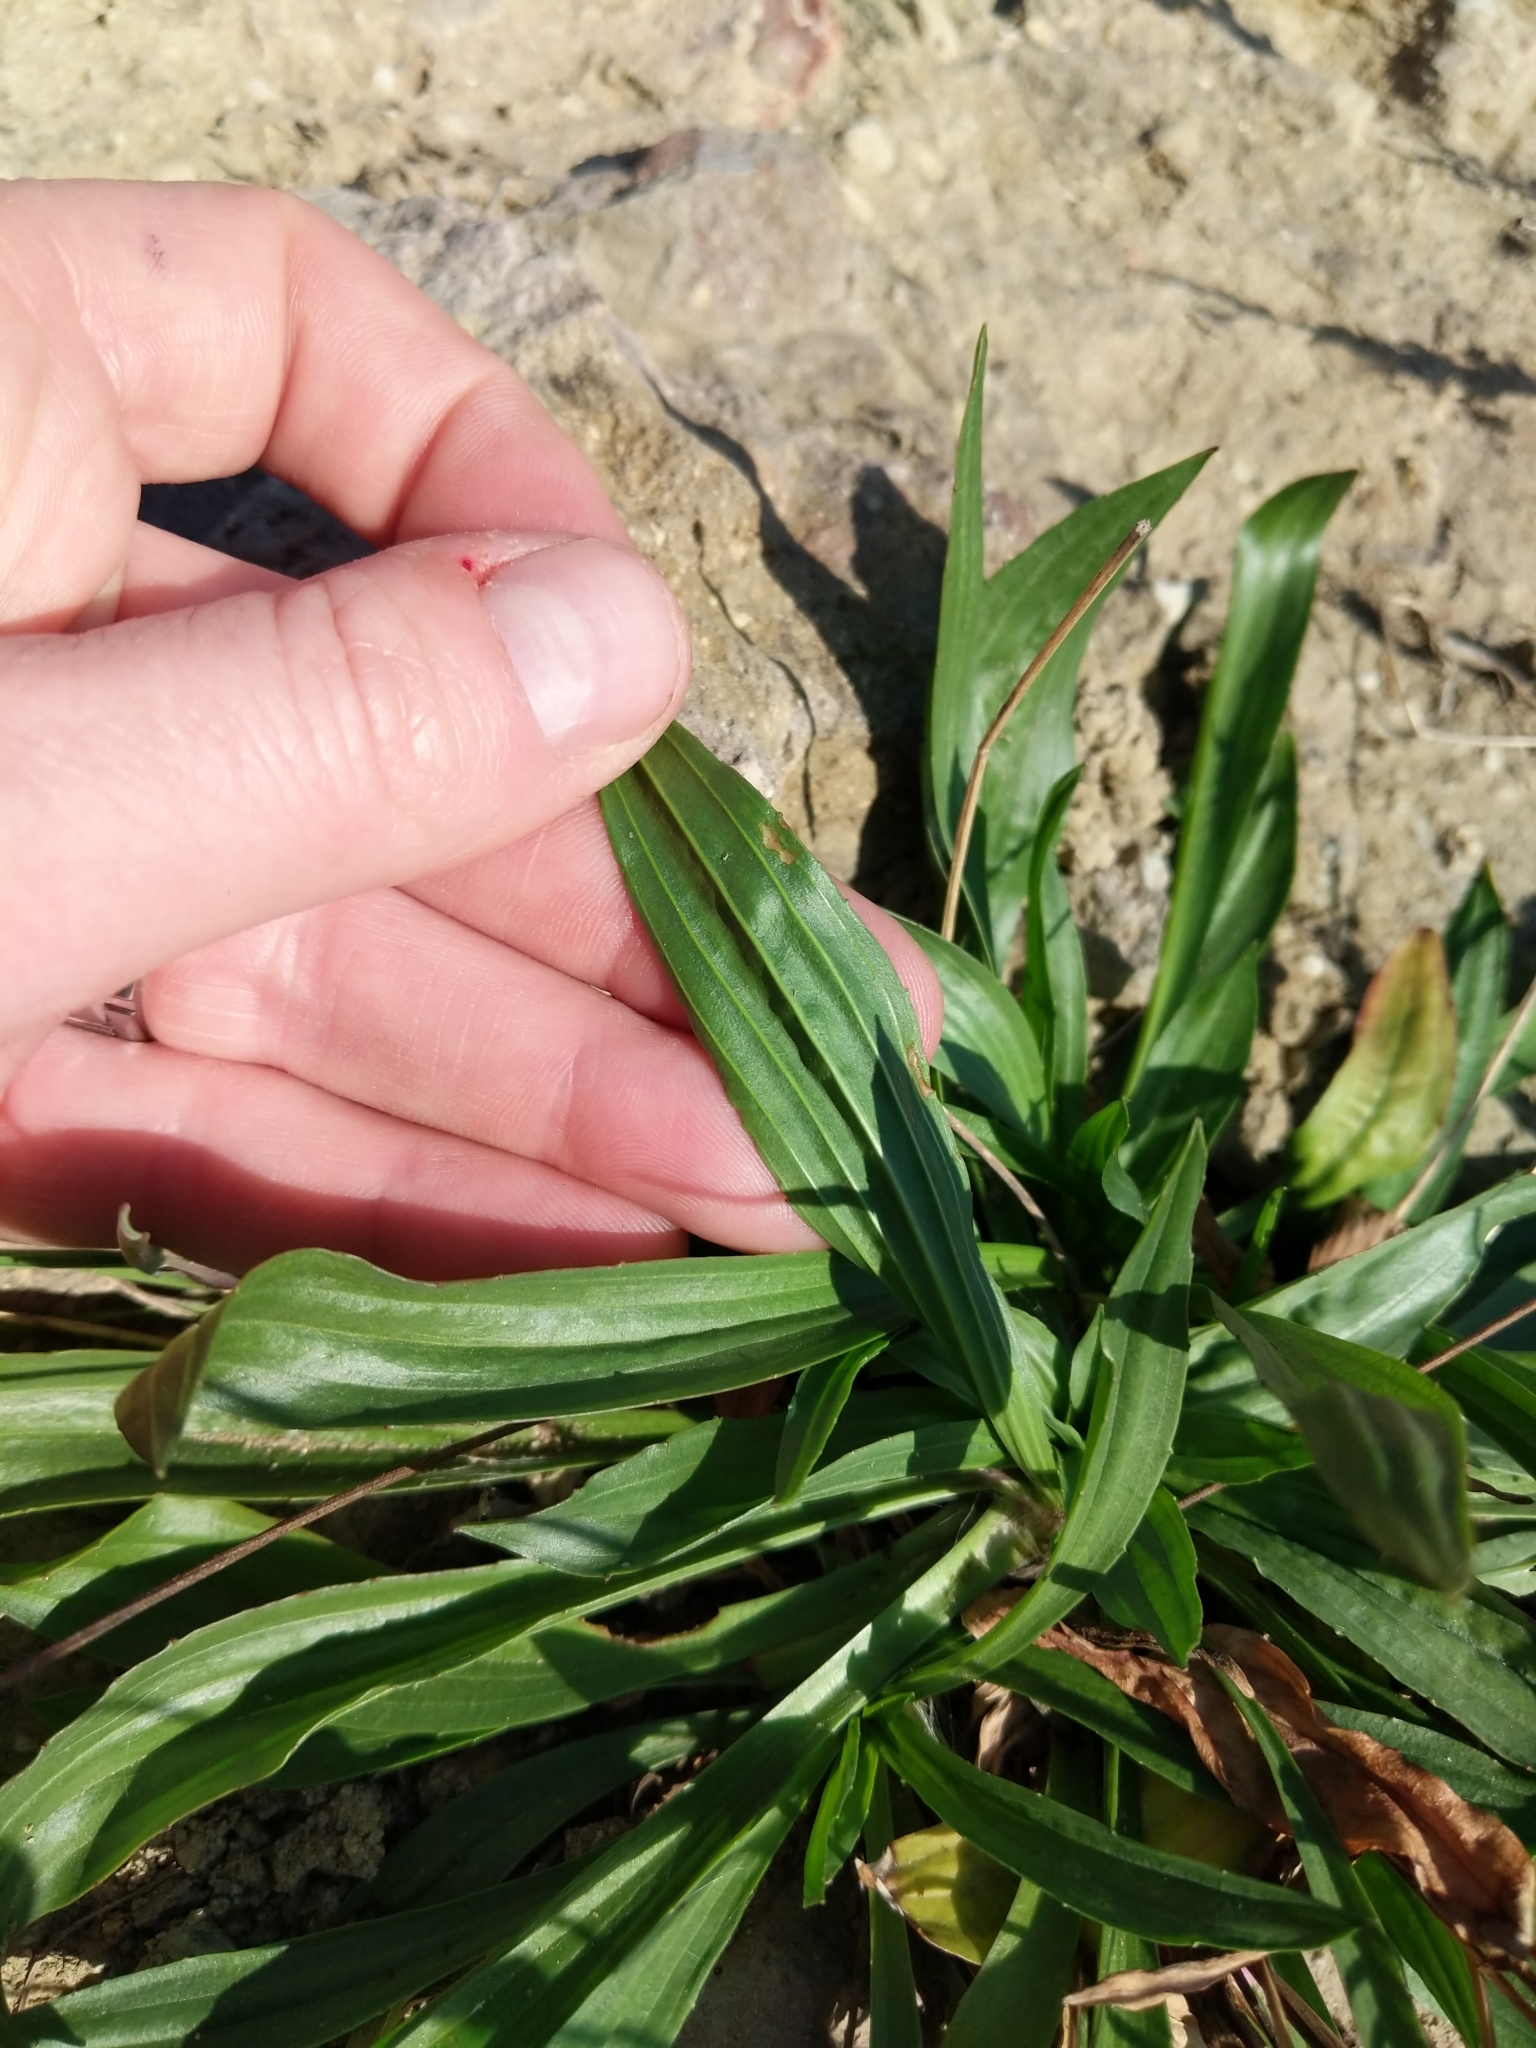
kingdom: Plantae
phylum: Tracheophyta
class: Magnoliopsida
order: Lamiales
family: Plantaginaceae
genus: Plantago
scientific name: Plantago lanceolata
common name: Ribwort plantain
